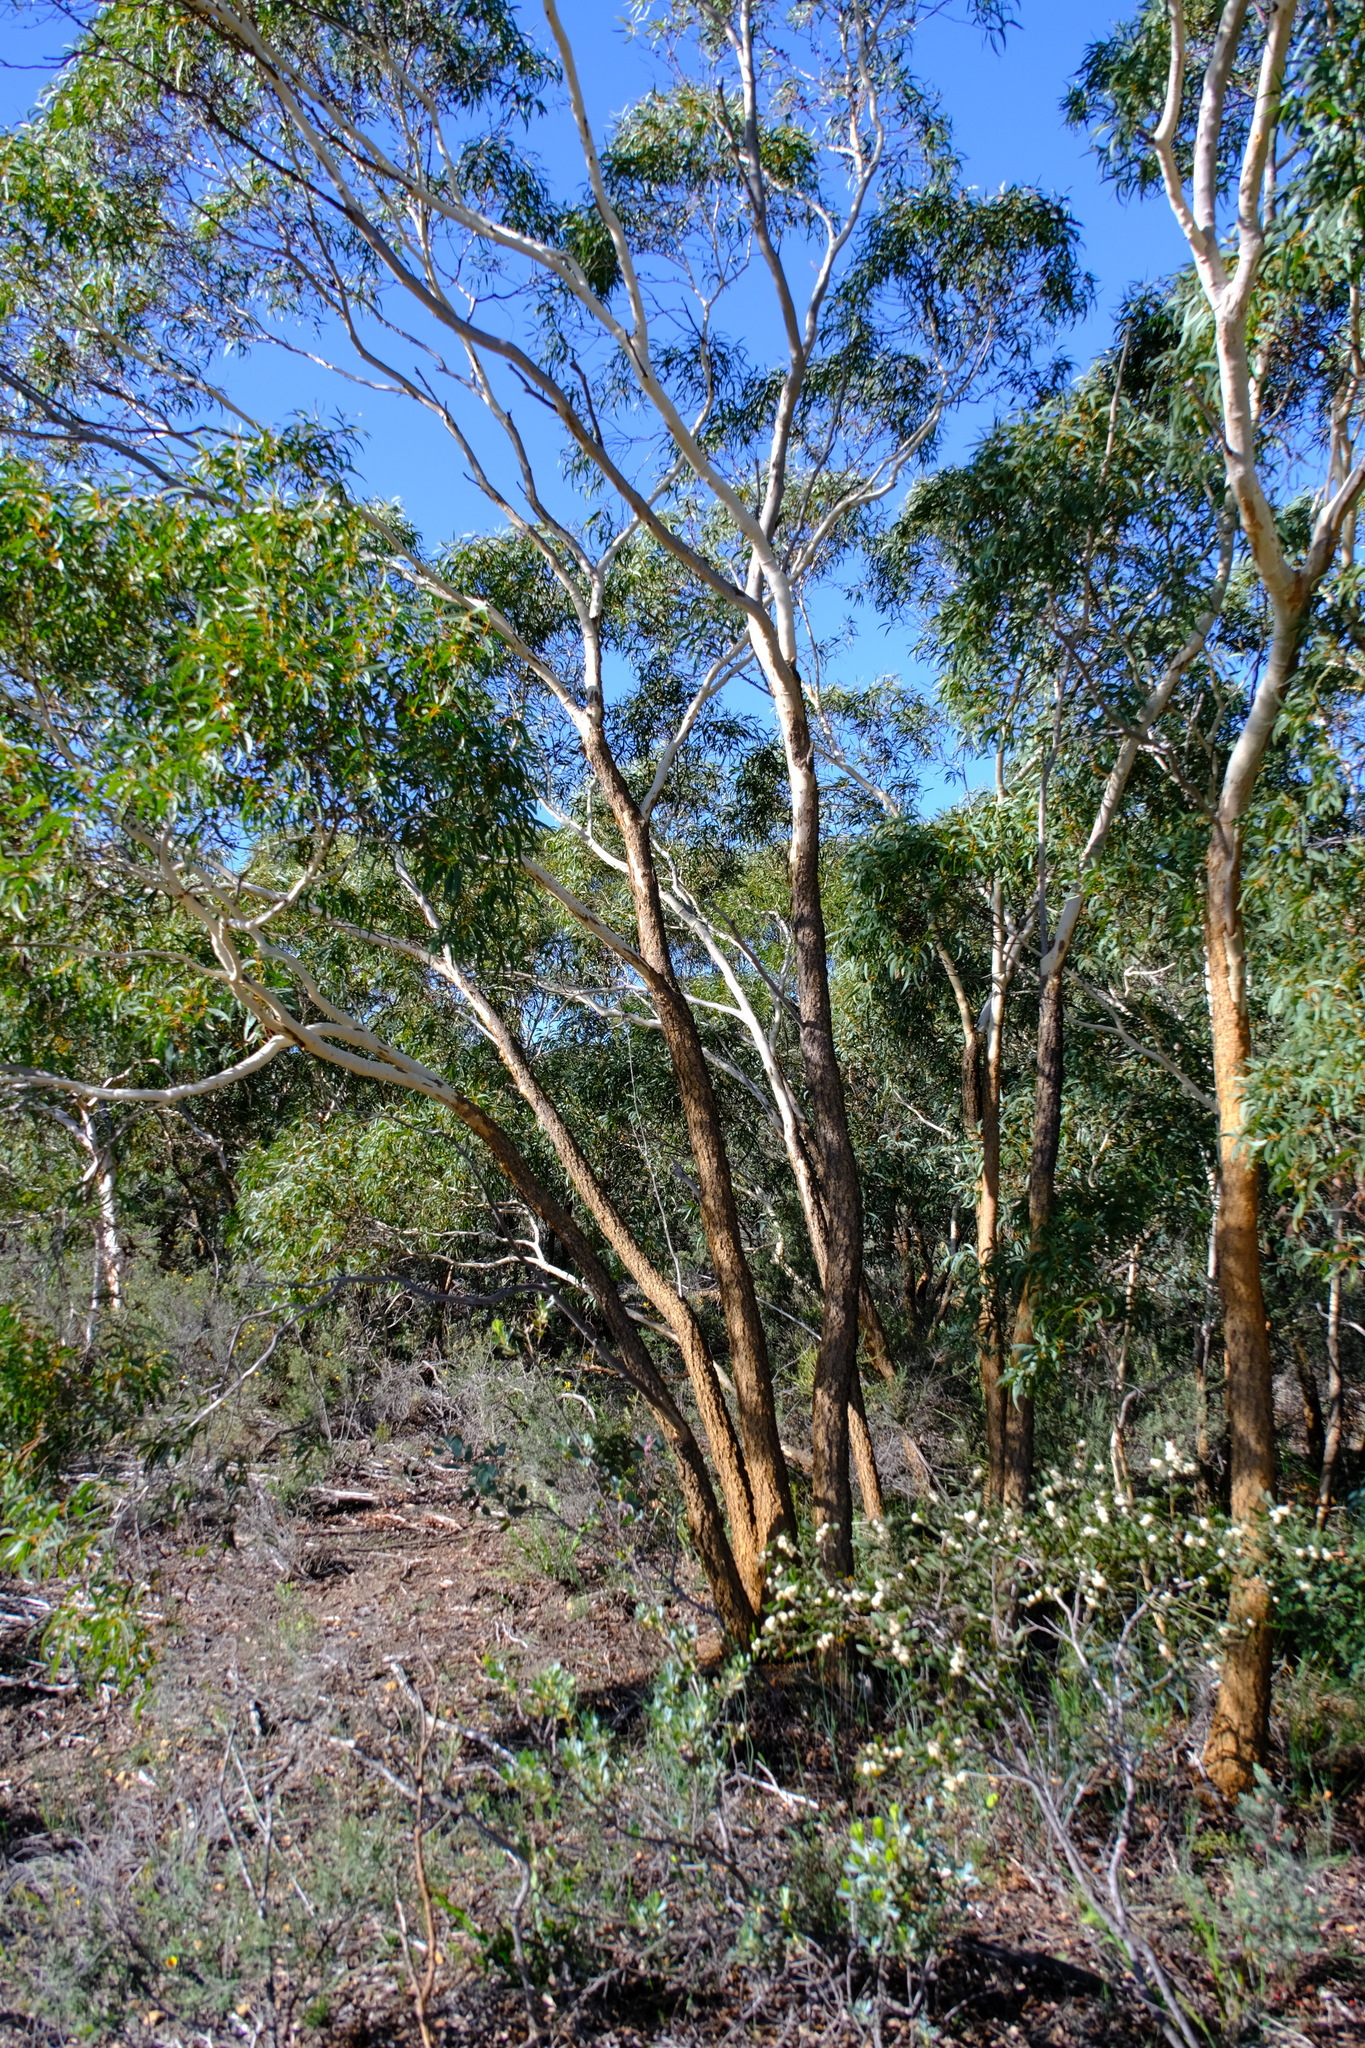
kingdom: Plantae
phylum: Tracheophyta
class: Magnoliopsida
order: Myrtales
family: Myrtaceae
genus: Eucalyptus
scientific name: Eucalyptus suberea
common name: Cork mallee
